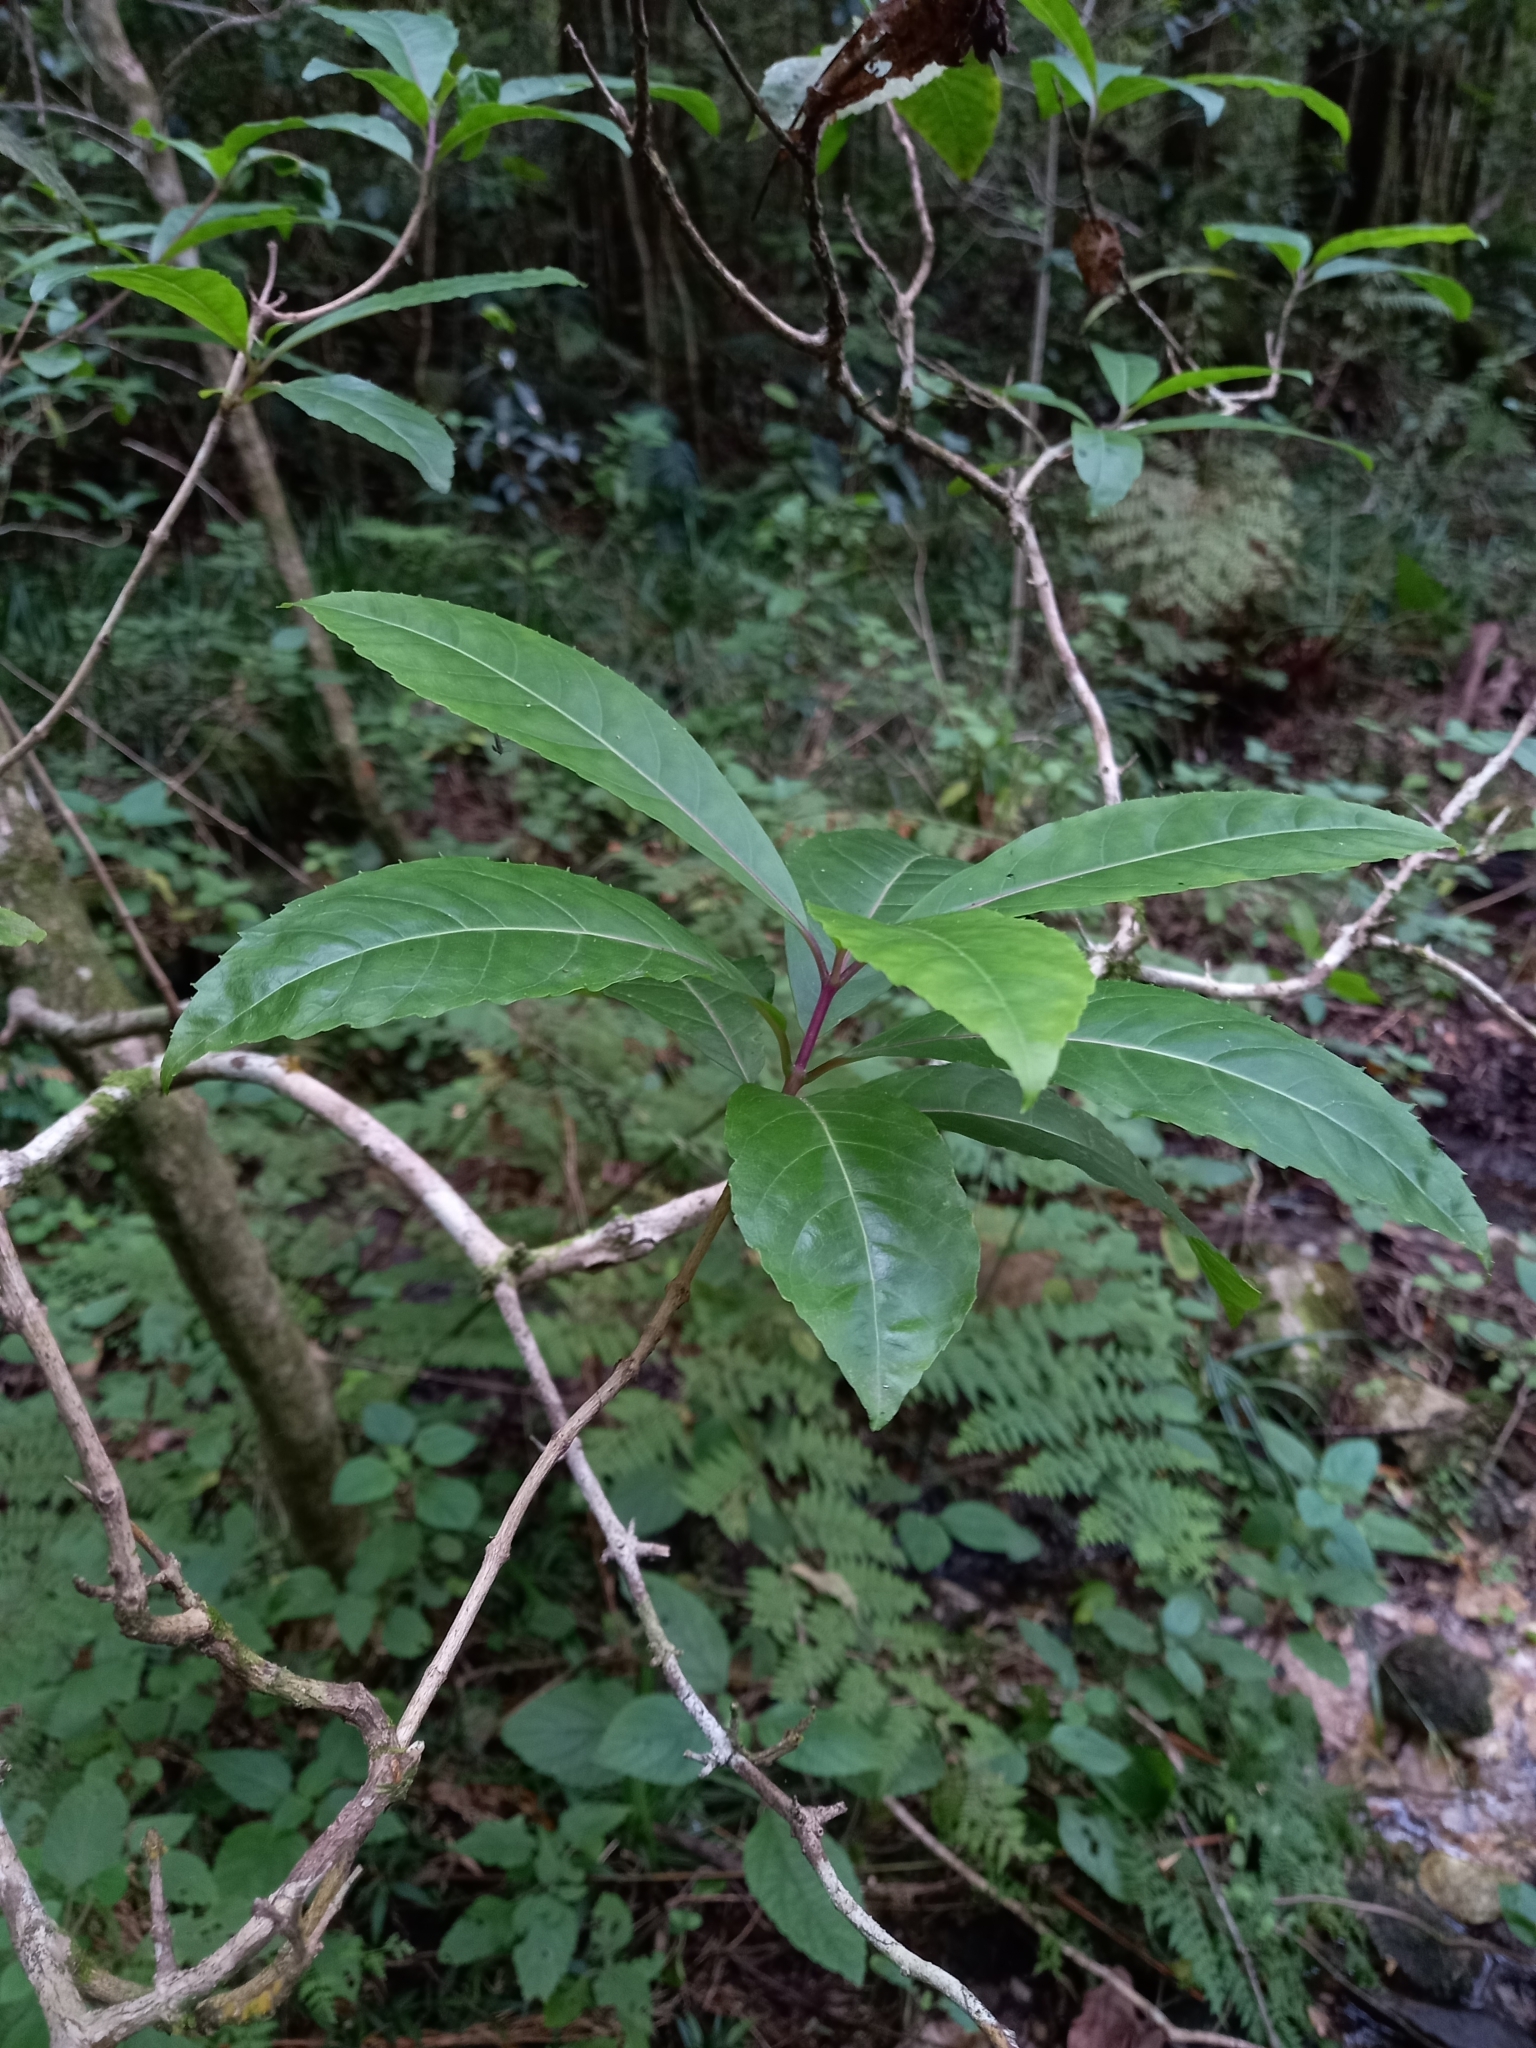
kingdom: Plantae
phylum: Tracheophyta
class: Magnoliopsida
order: Lamiales
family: Stilbaceae
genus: Nuxia
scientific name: Nuxia floribunda
